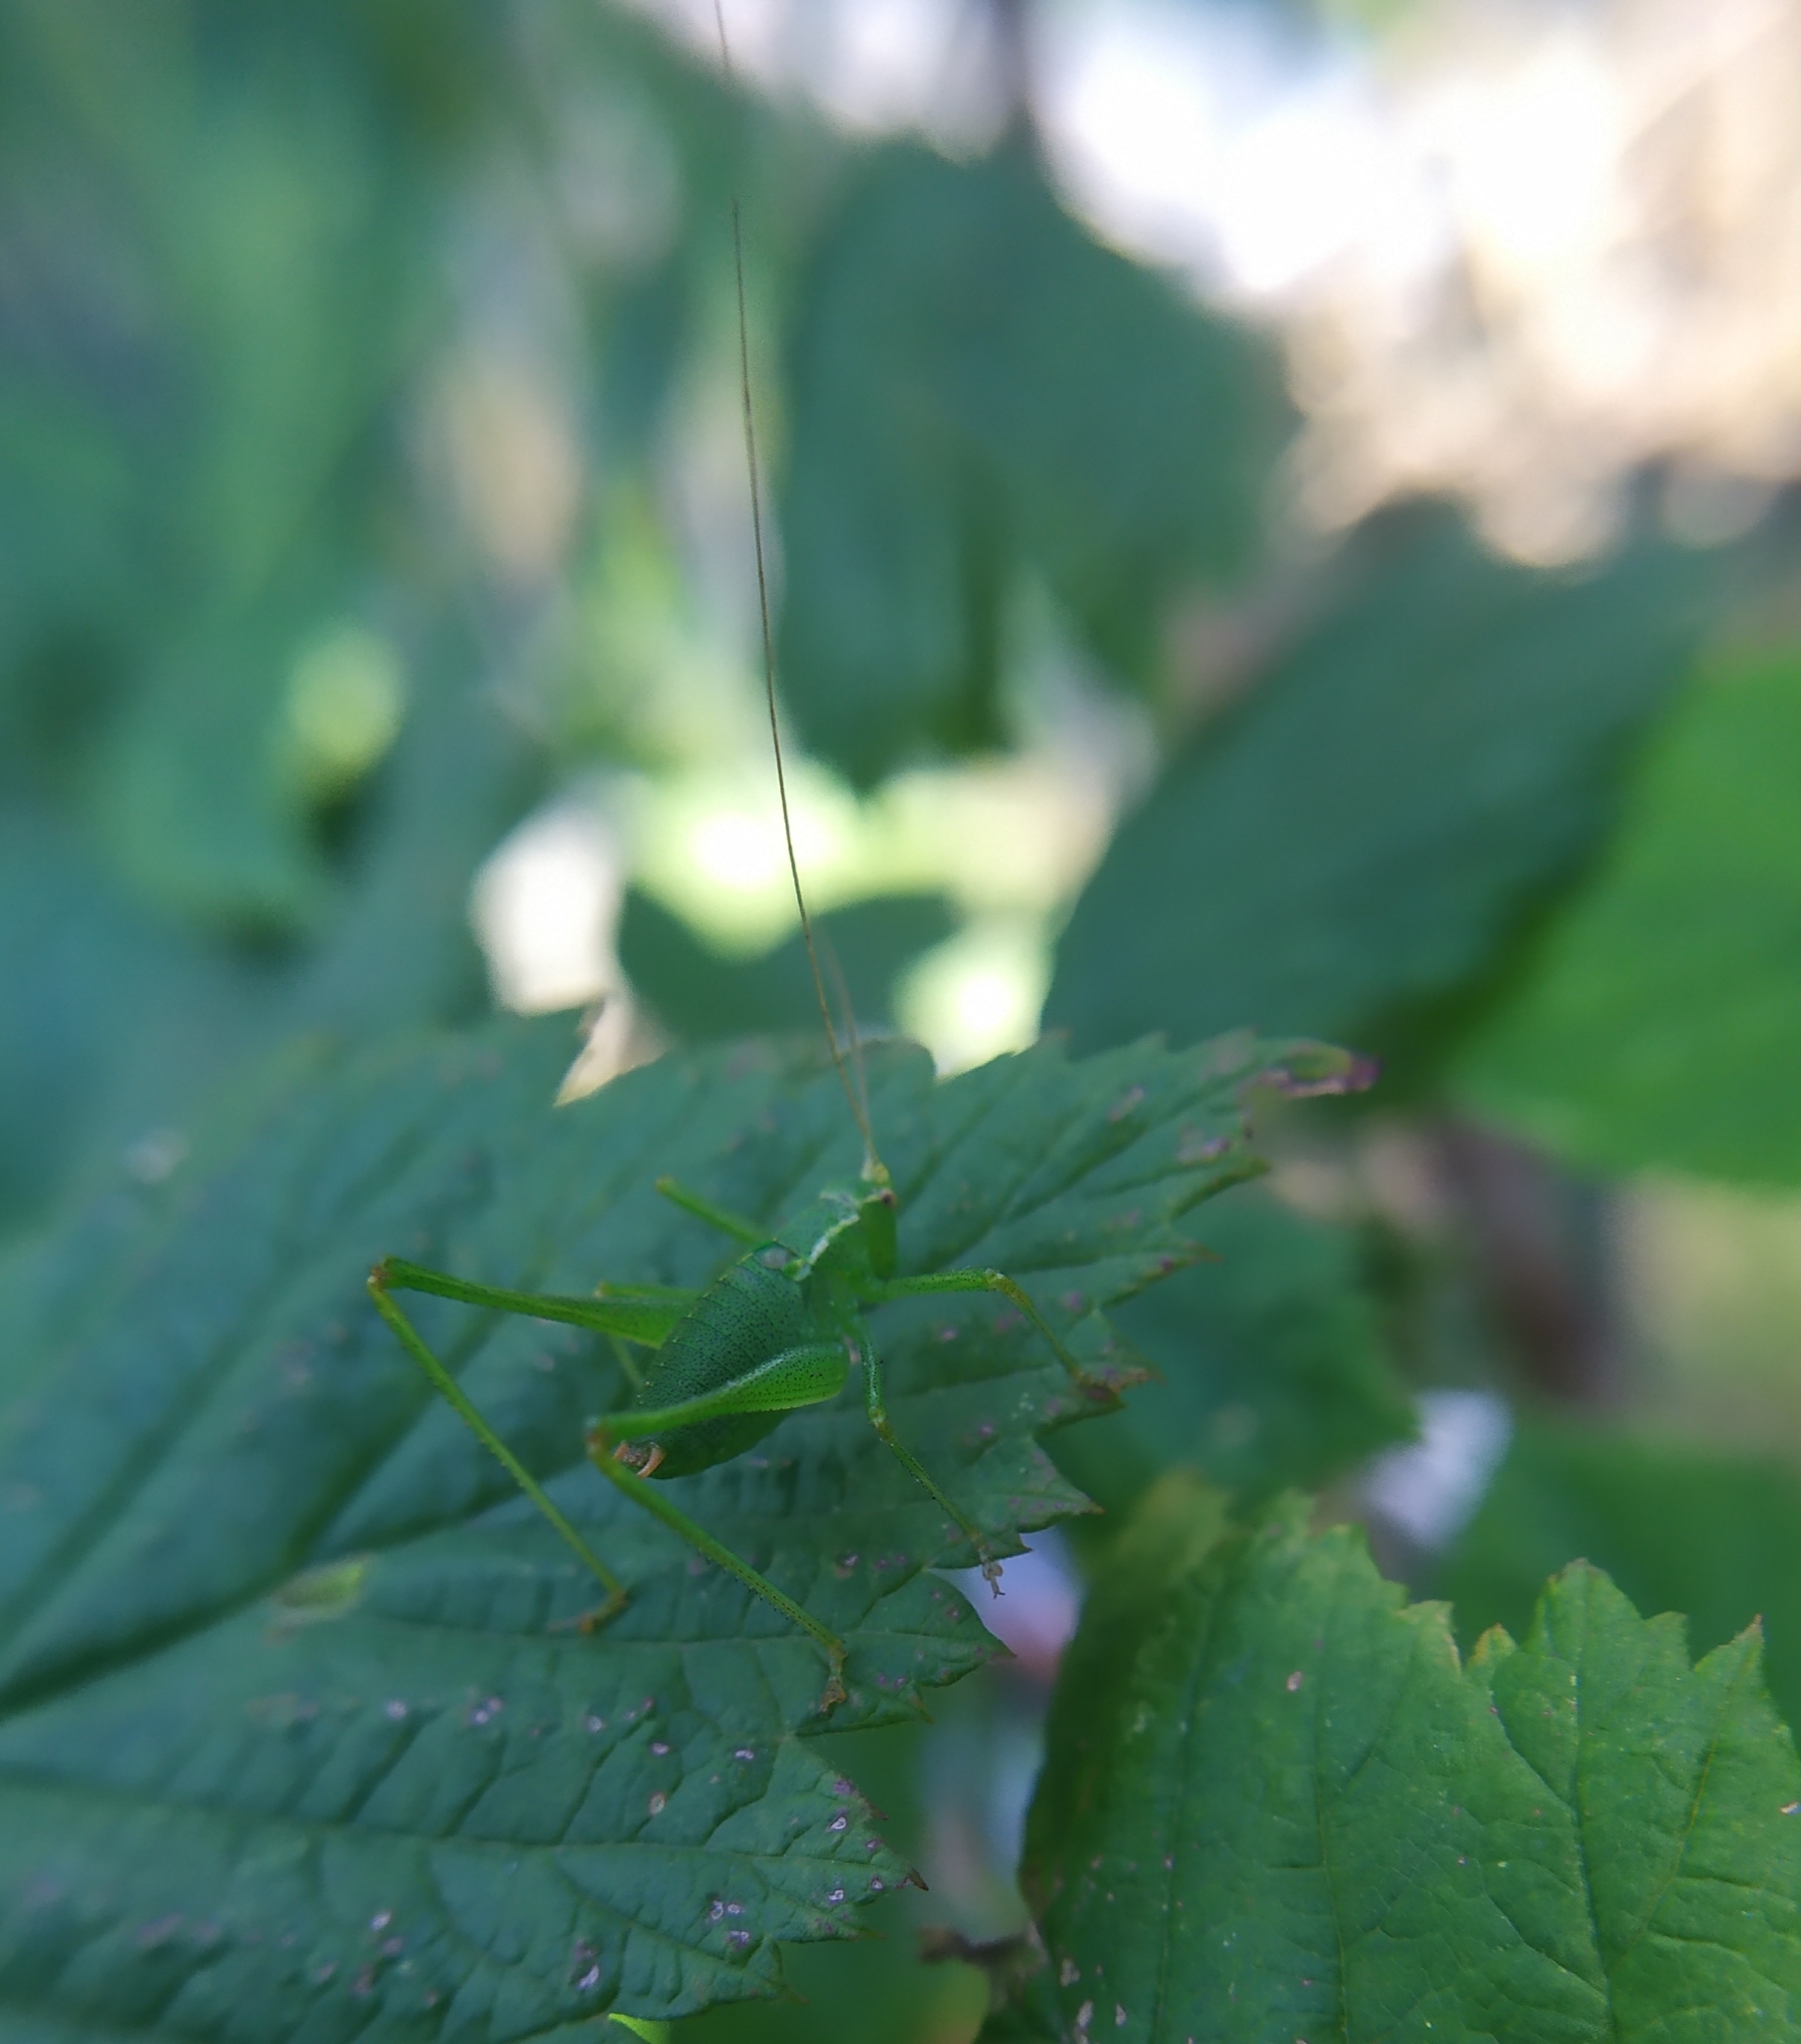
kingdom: Animalia
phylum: Arthropoda
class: Insecta
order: Orthoptera
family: Tettigoniidae
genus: Leptophyes
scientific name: Leptophyes punctatissima
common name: Speckled bush-cricket
